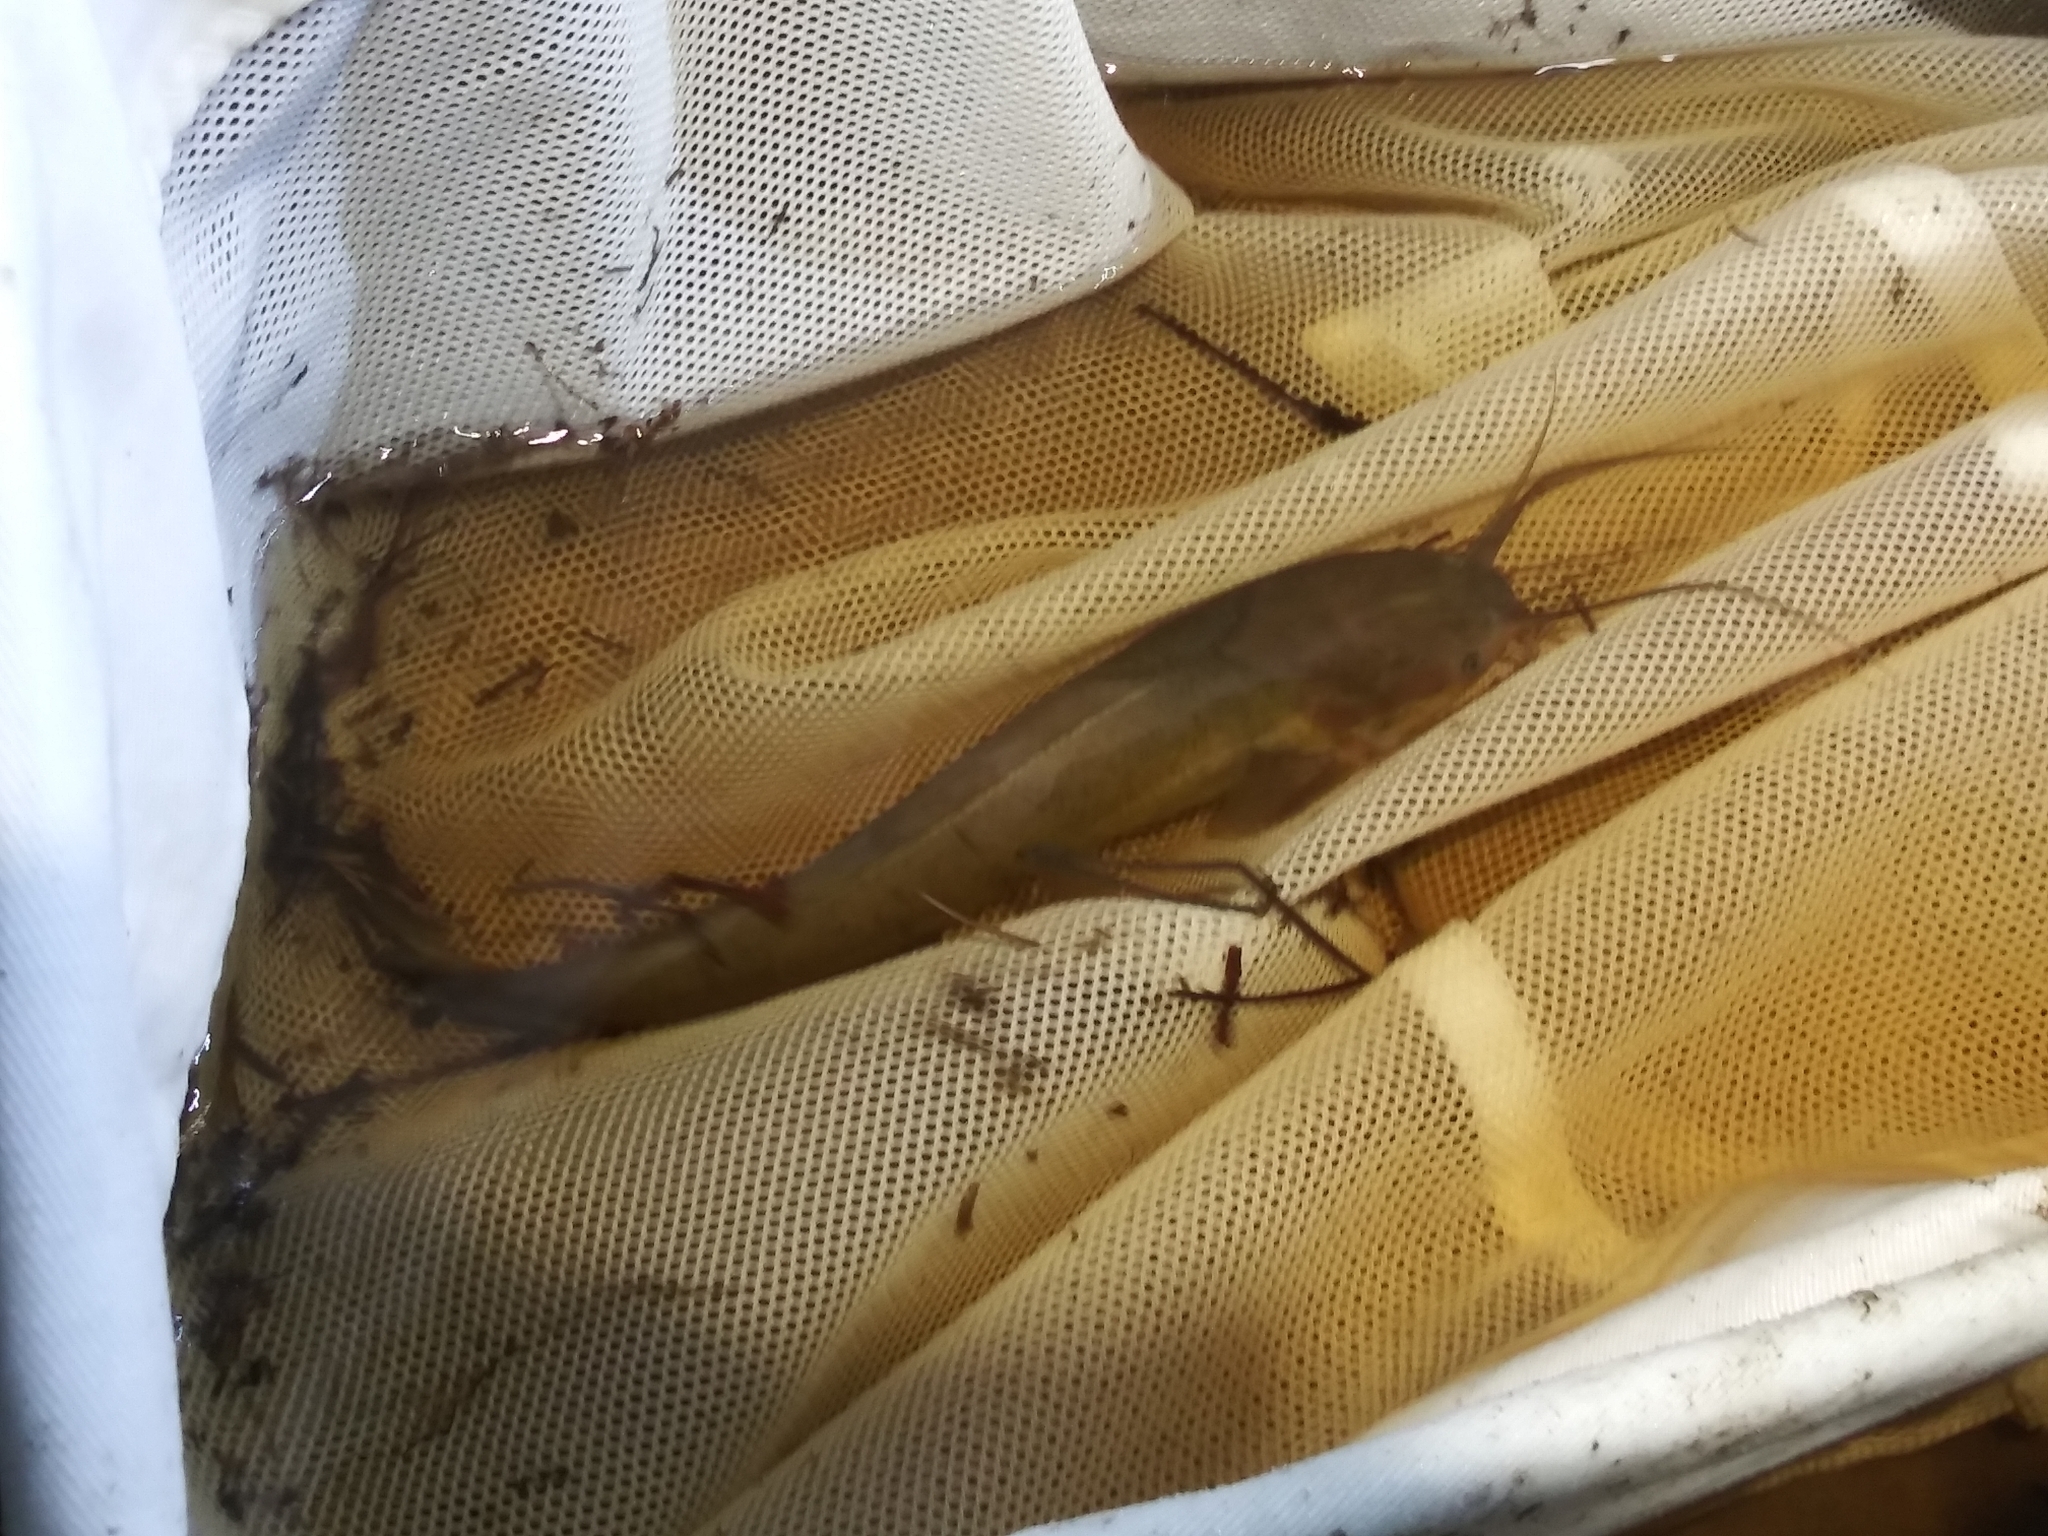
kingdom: Animalia
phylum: Chordata
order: Siluriformes
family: Clariidae
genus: Clarias
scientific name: Clarias batrachus
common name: Walking catfish
